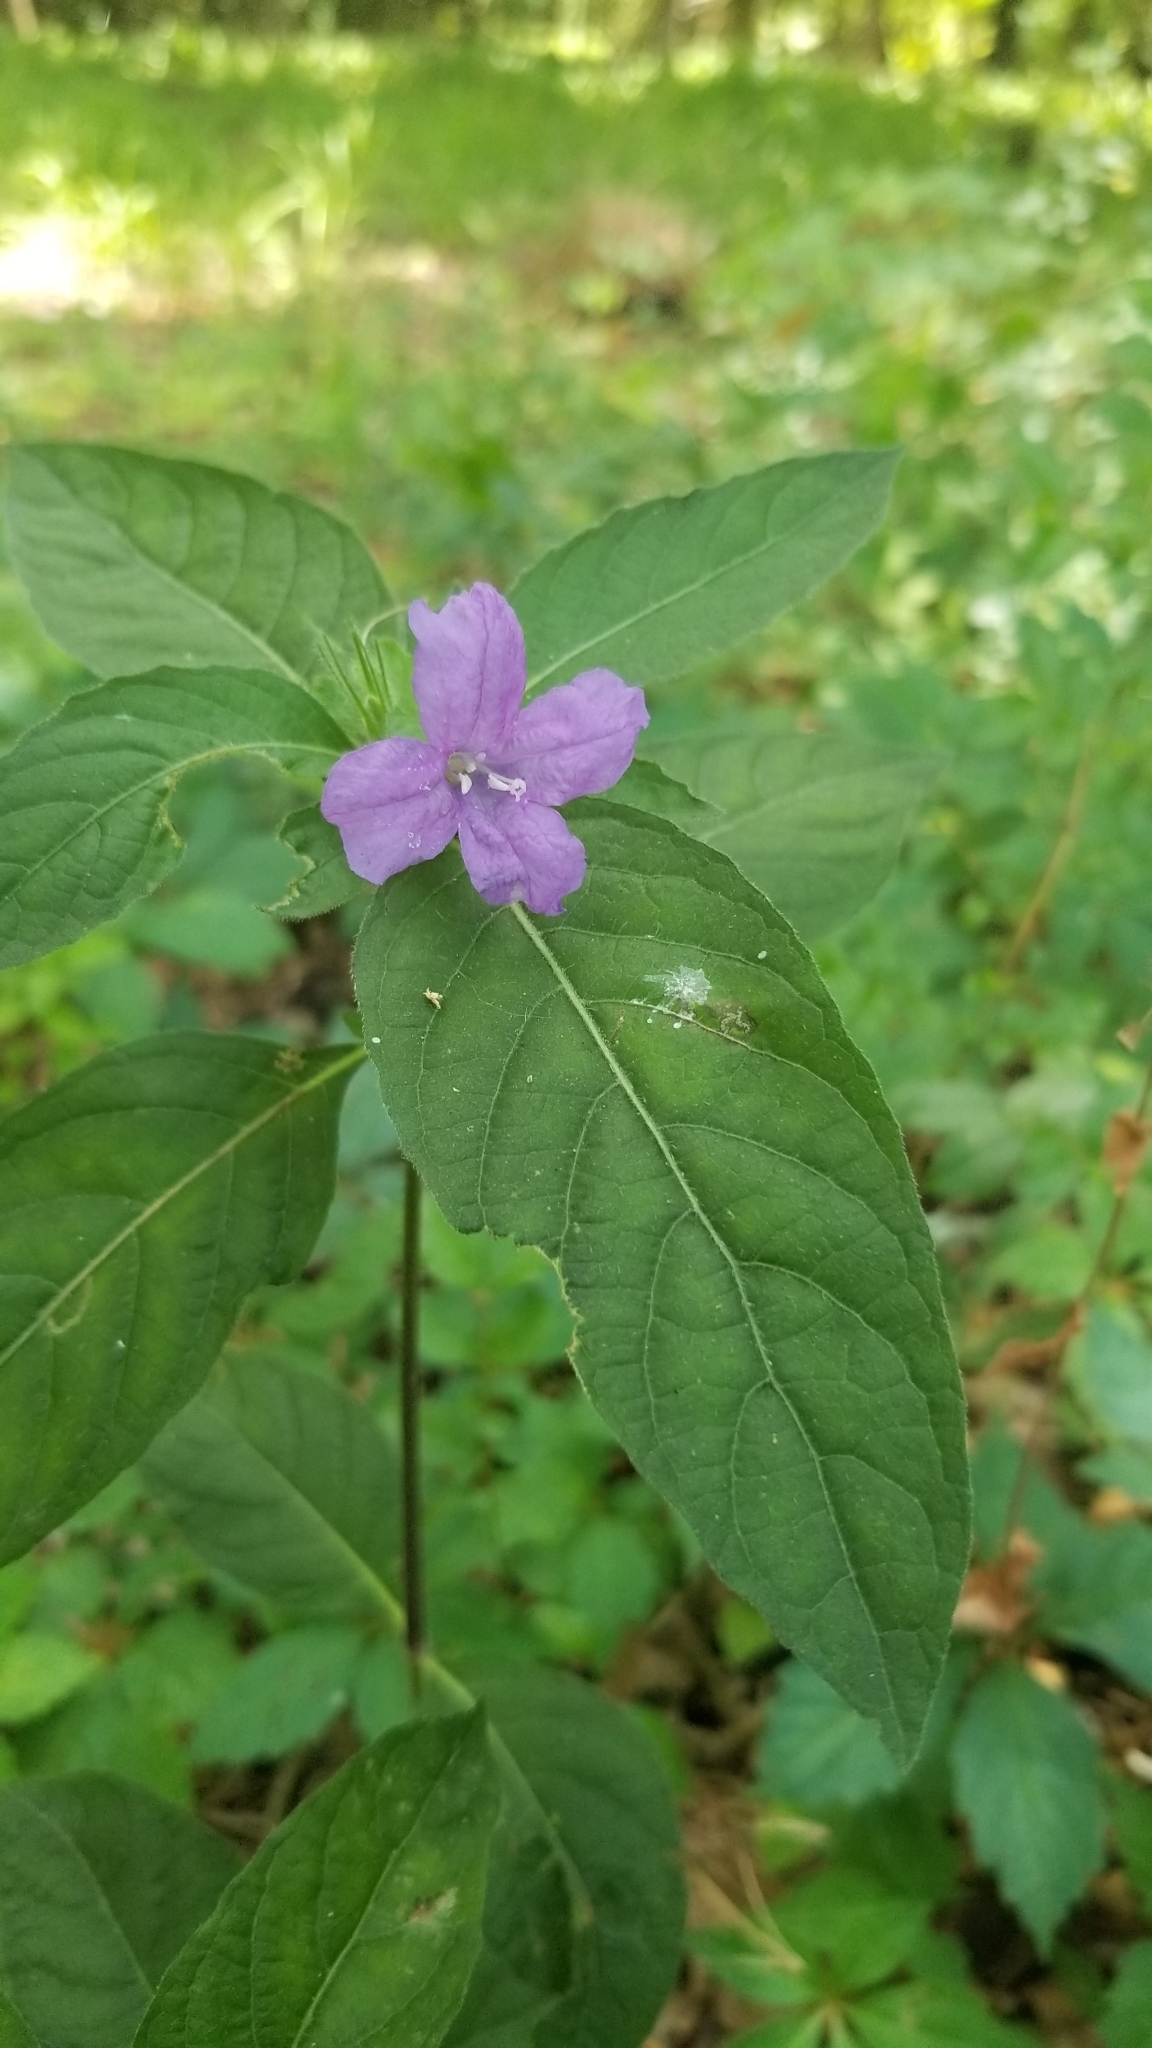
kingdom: Plantae
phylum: Tracheophyta
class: Magnoliopsida
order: Lamiales
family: Acanthaceae
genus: Ruellia
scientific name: Ruellia caroliniensis
